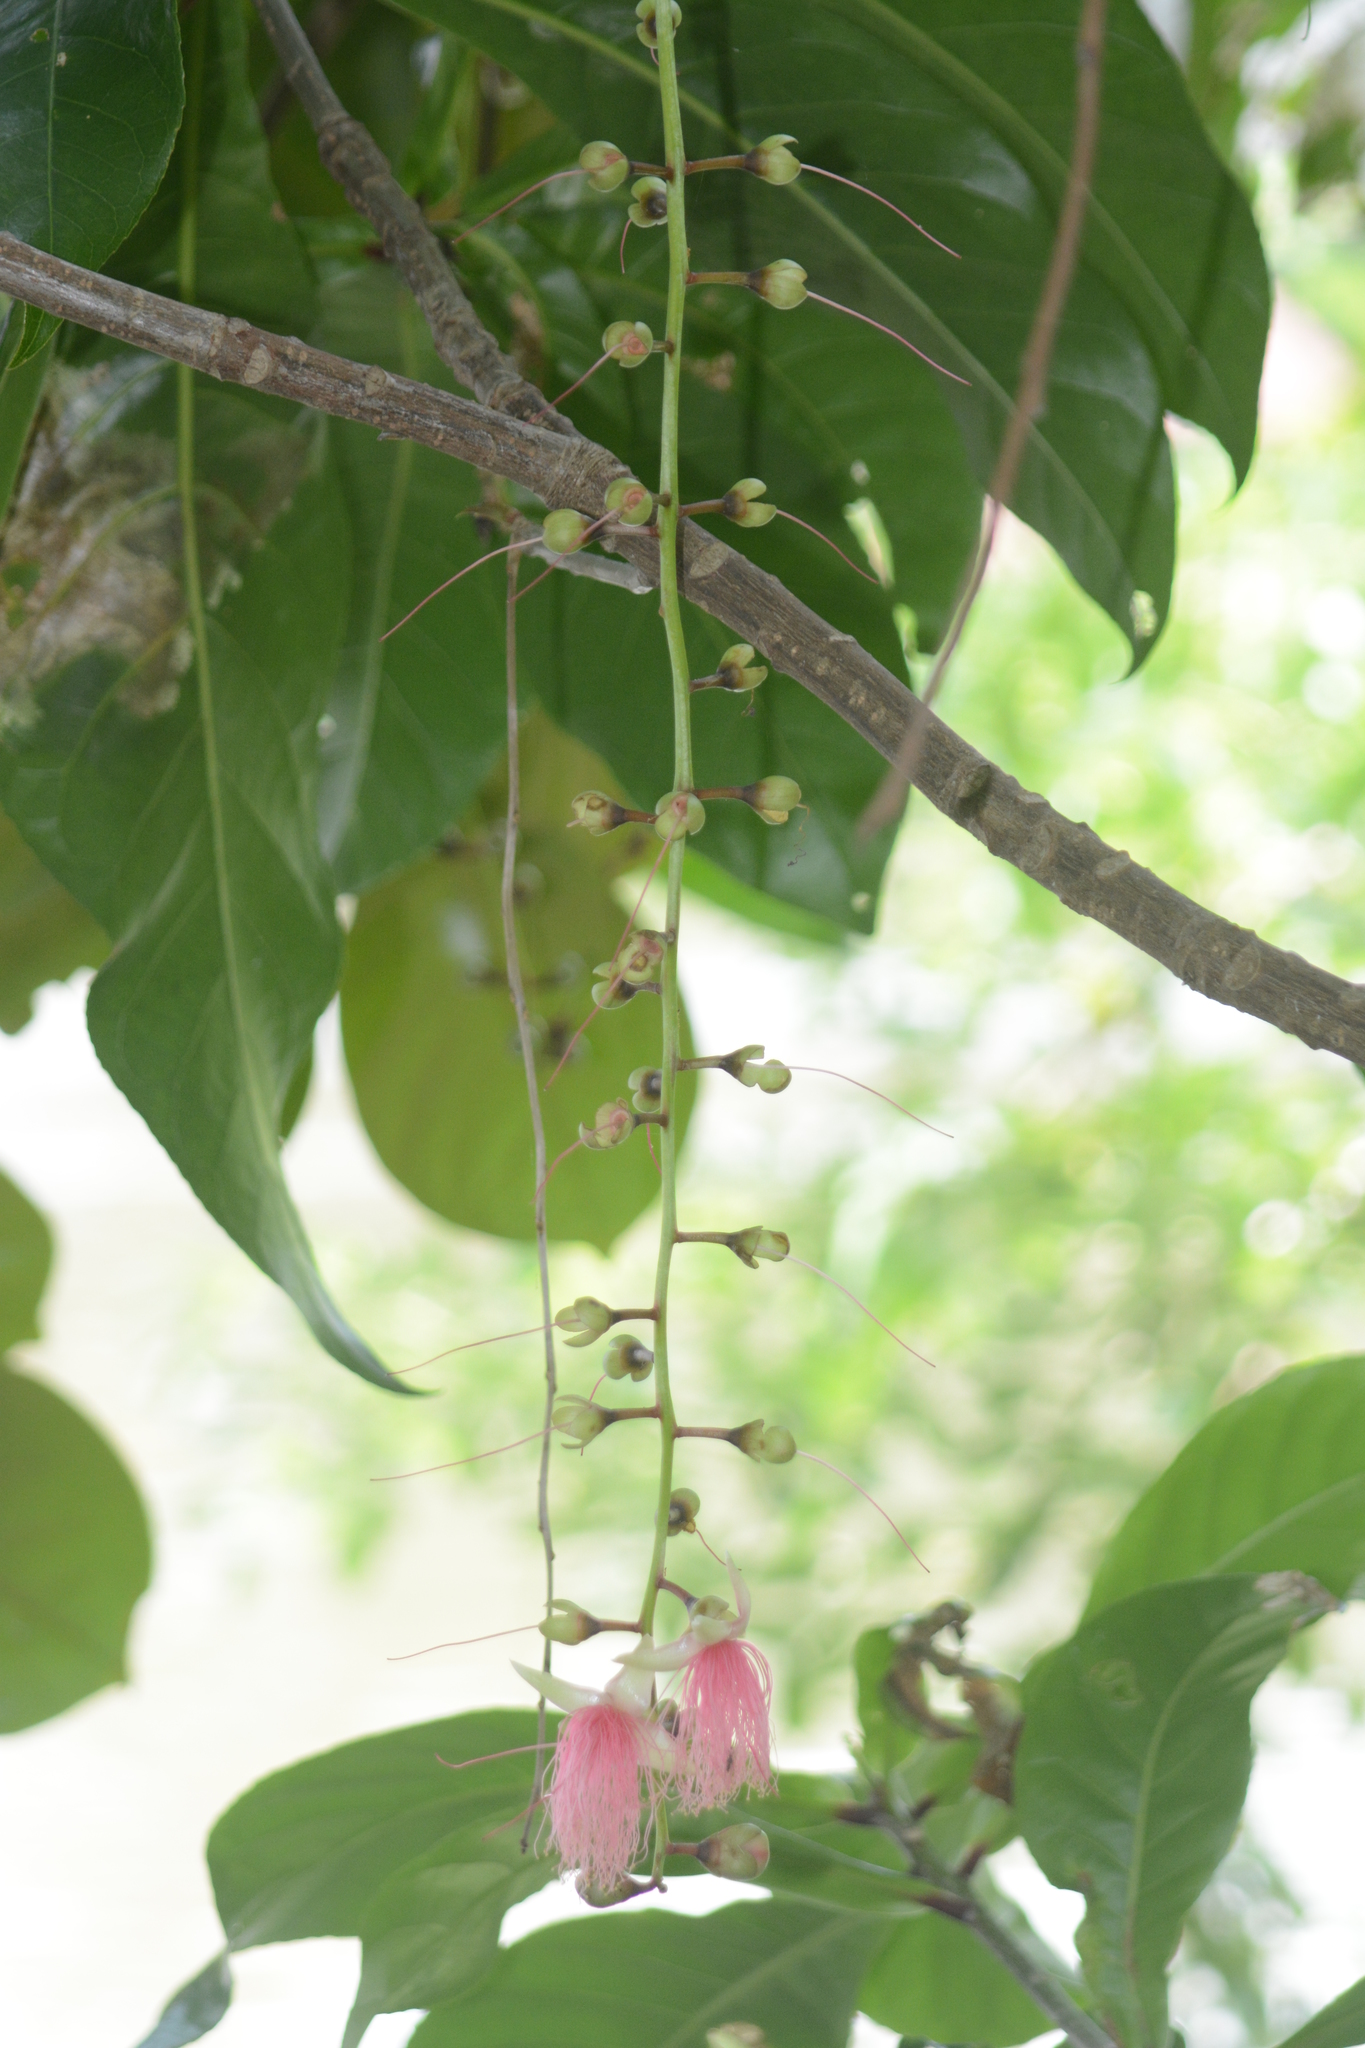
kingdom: Plantae
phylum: Tracheophyta
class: Magnoliopsida
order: Ericales
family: Lecythidaceae
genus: Barringtonia
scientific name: Barringtonia racemosa
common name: Brackwater mangrove
